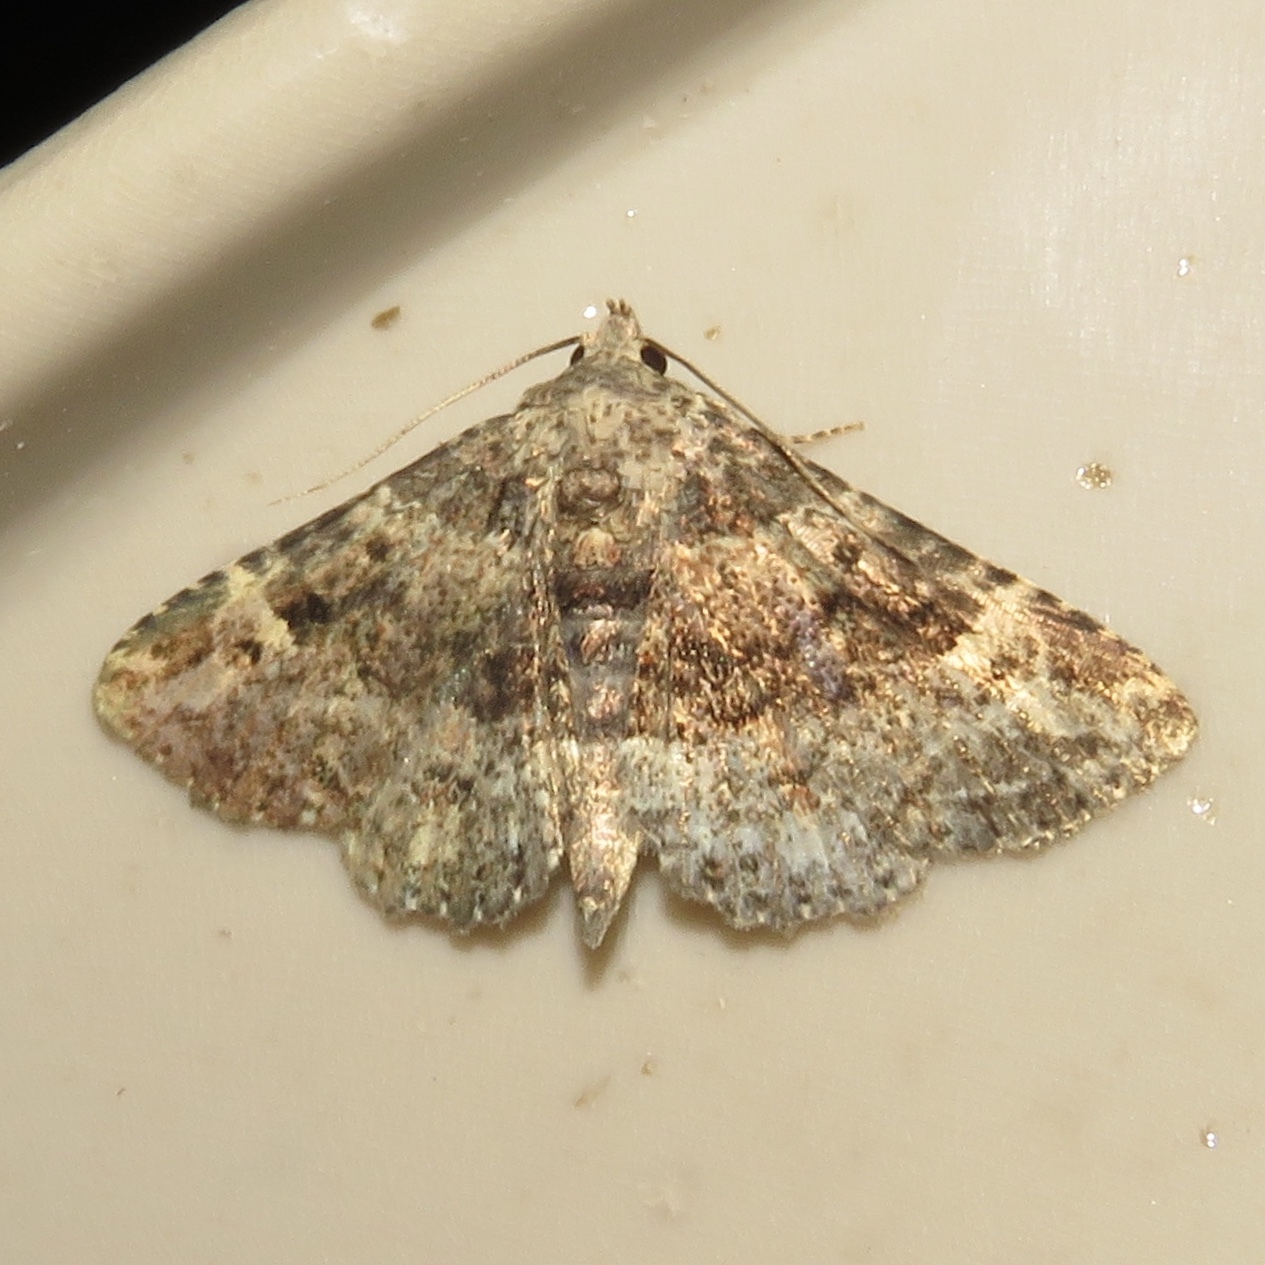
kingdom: Animalia
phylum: Arthropoda
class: Insecta
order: Lepidoptera
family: Erebidae
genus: Metalectra
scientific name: Metalectra discalis
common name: Common fungus moth
